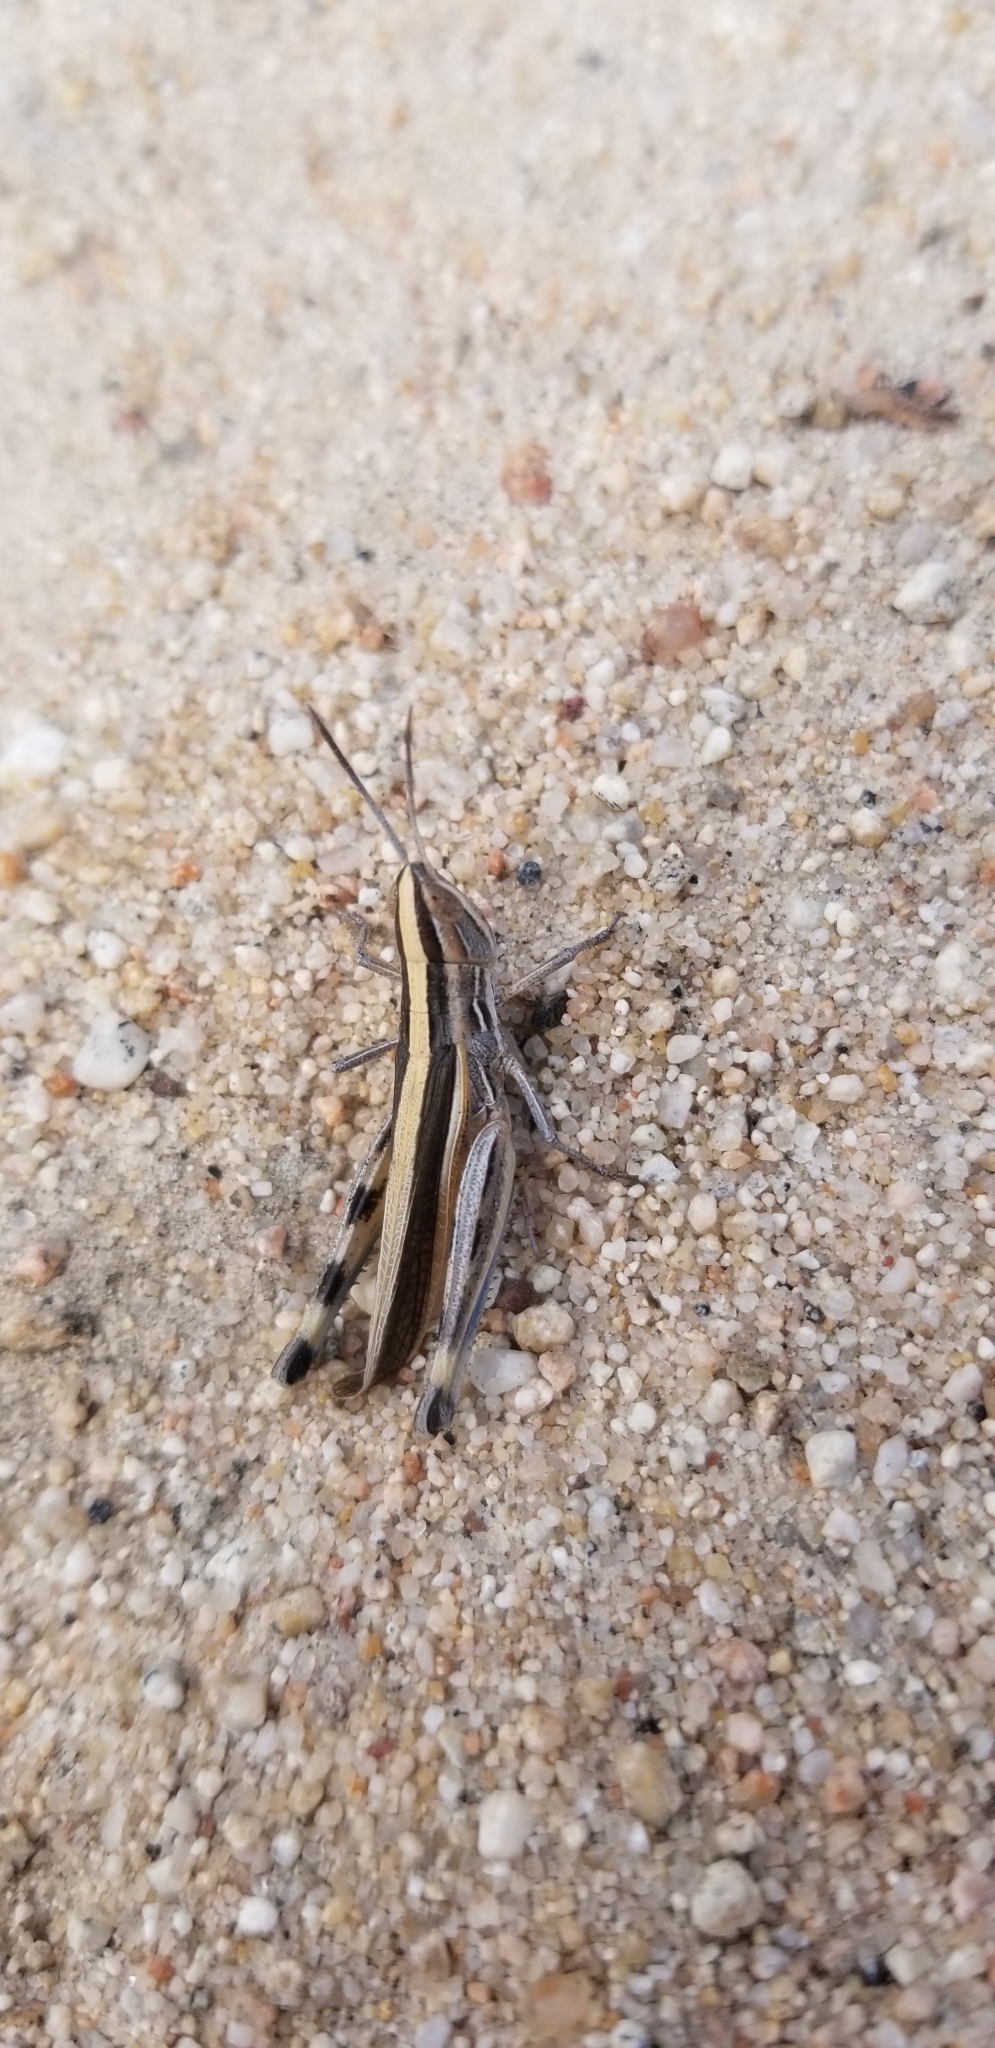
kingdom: Animalia
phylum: Arthropoda
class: Insecta
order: Orthoptera
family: Acrididae
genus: Amphitornus
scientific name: Amphitornus coloradus
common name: Striped grasshopper
